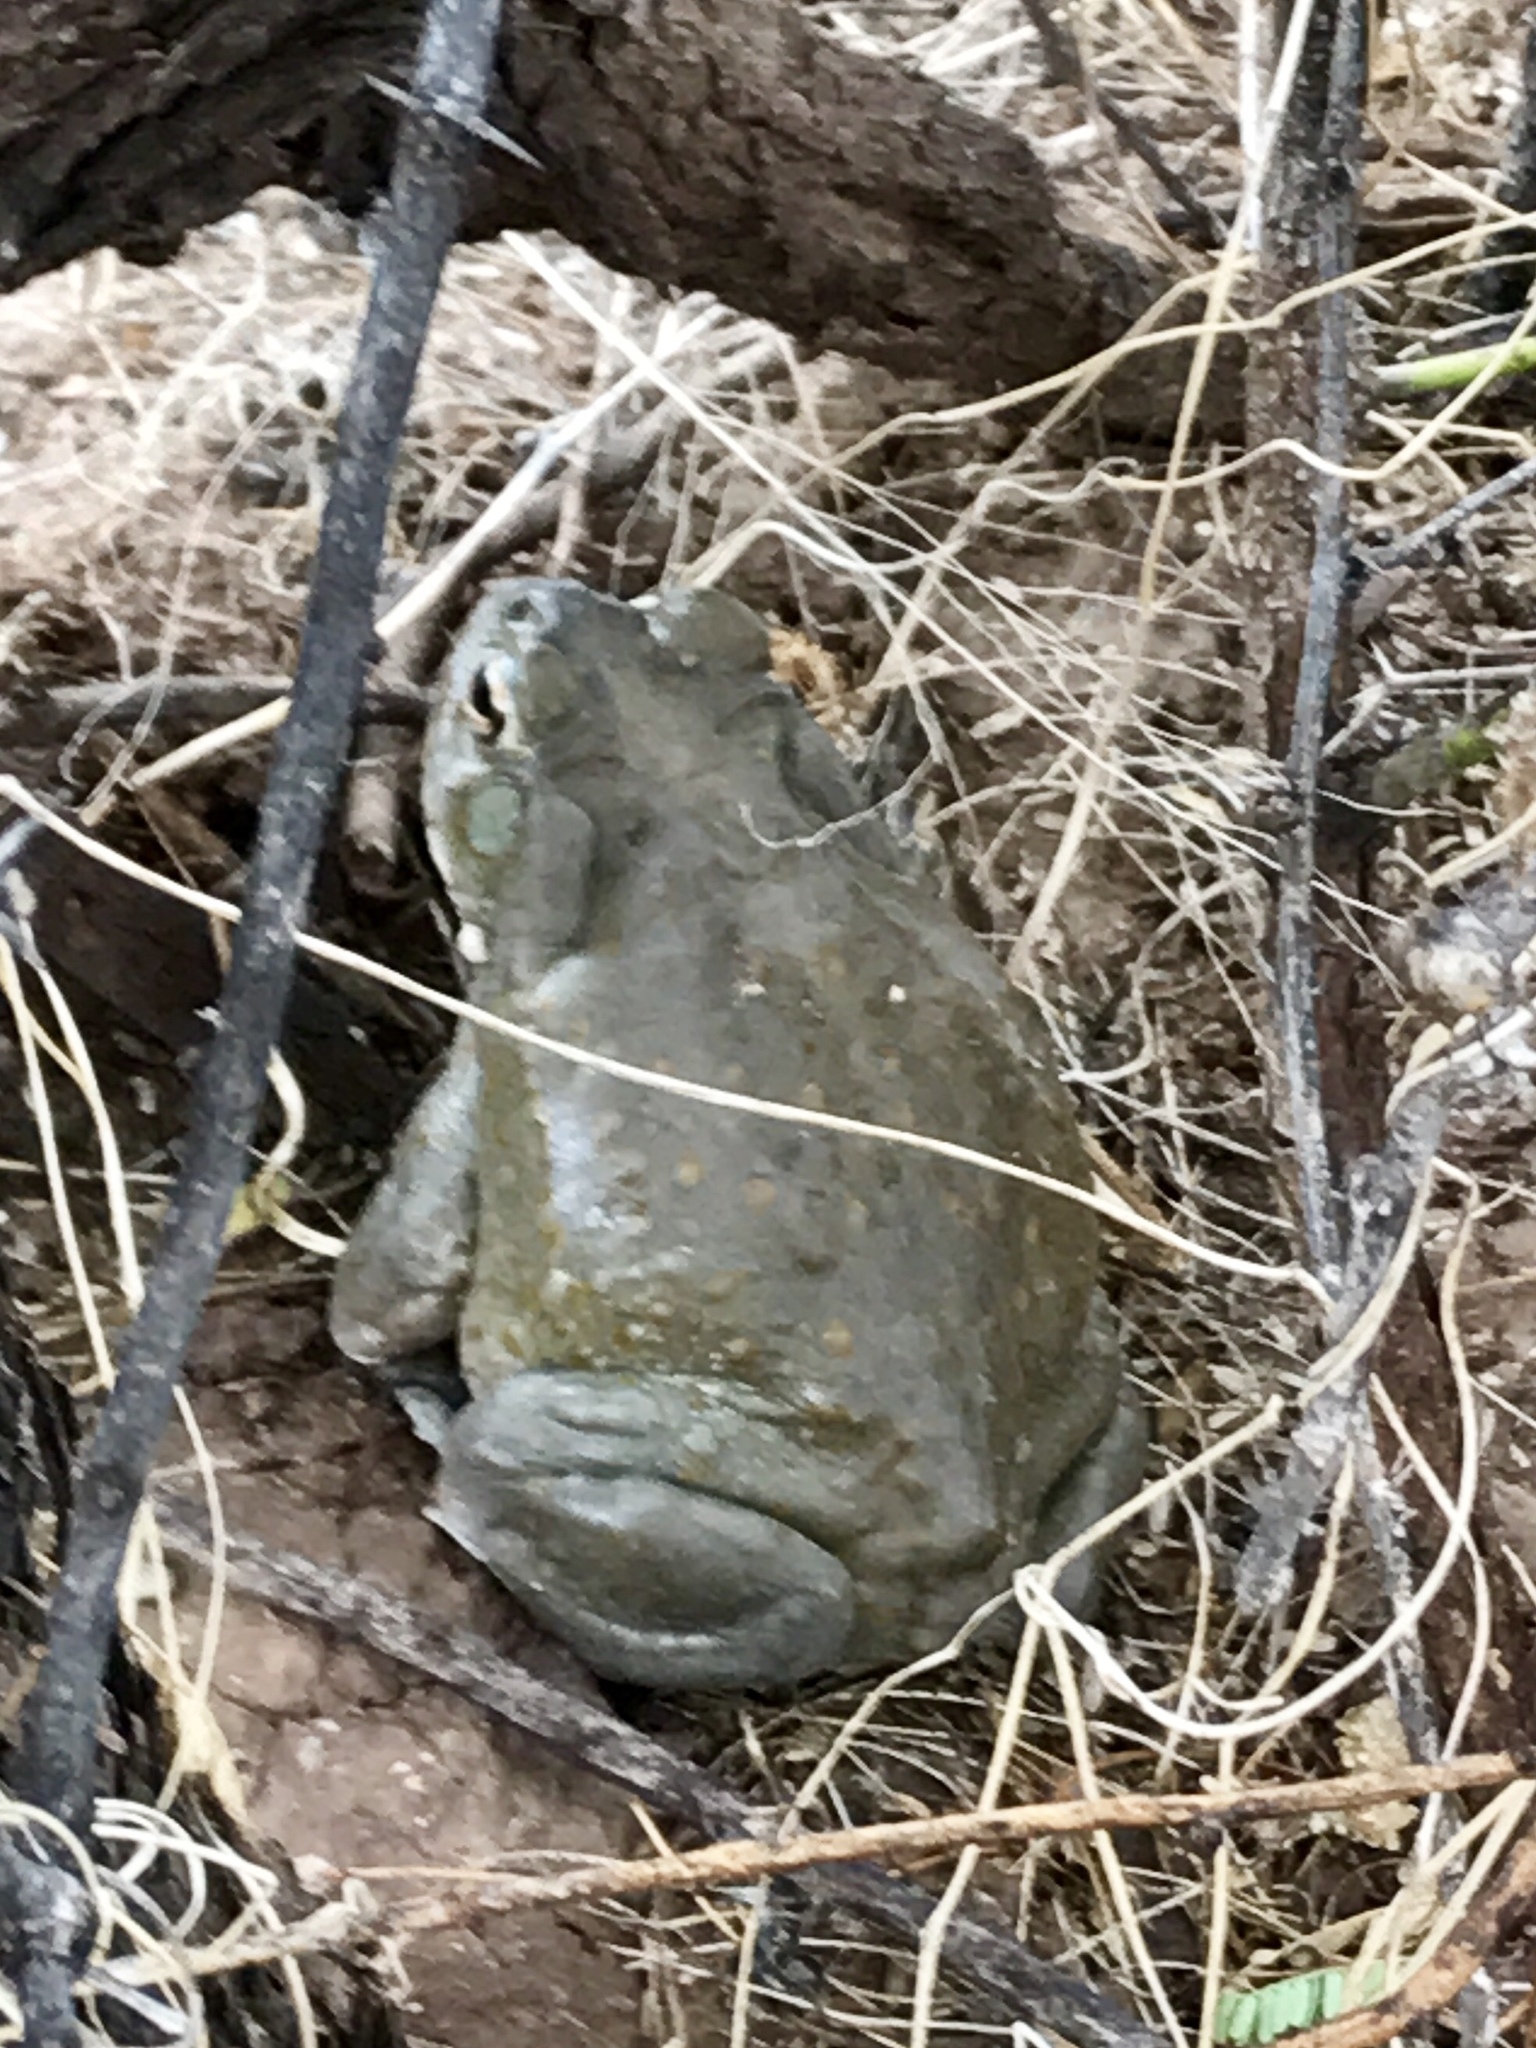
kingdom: Animalia
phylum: Chordata
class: Amphibia
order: Anura
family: Bufonidae
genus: Incilius
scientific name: Incilius alvarius
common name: Sonoran desert toad
